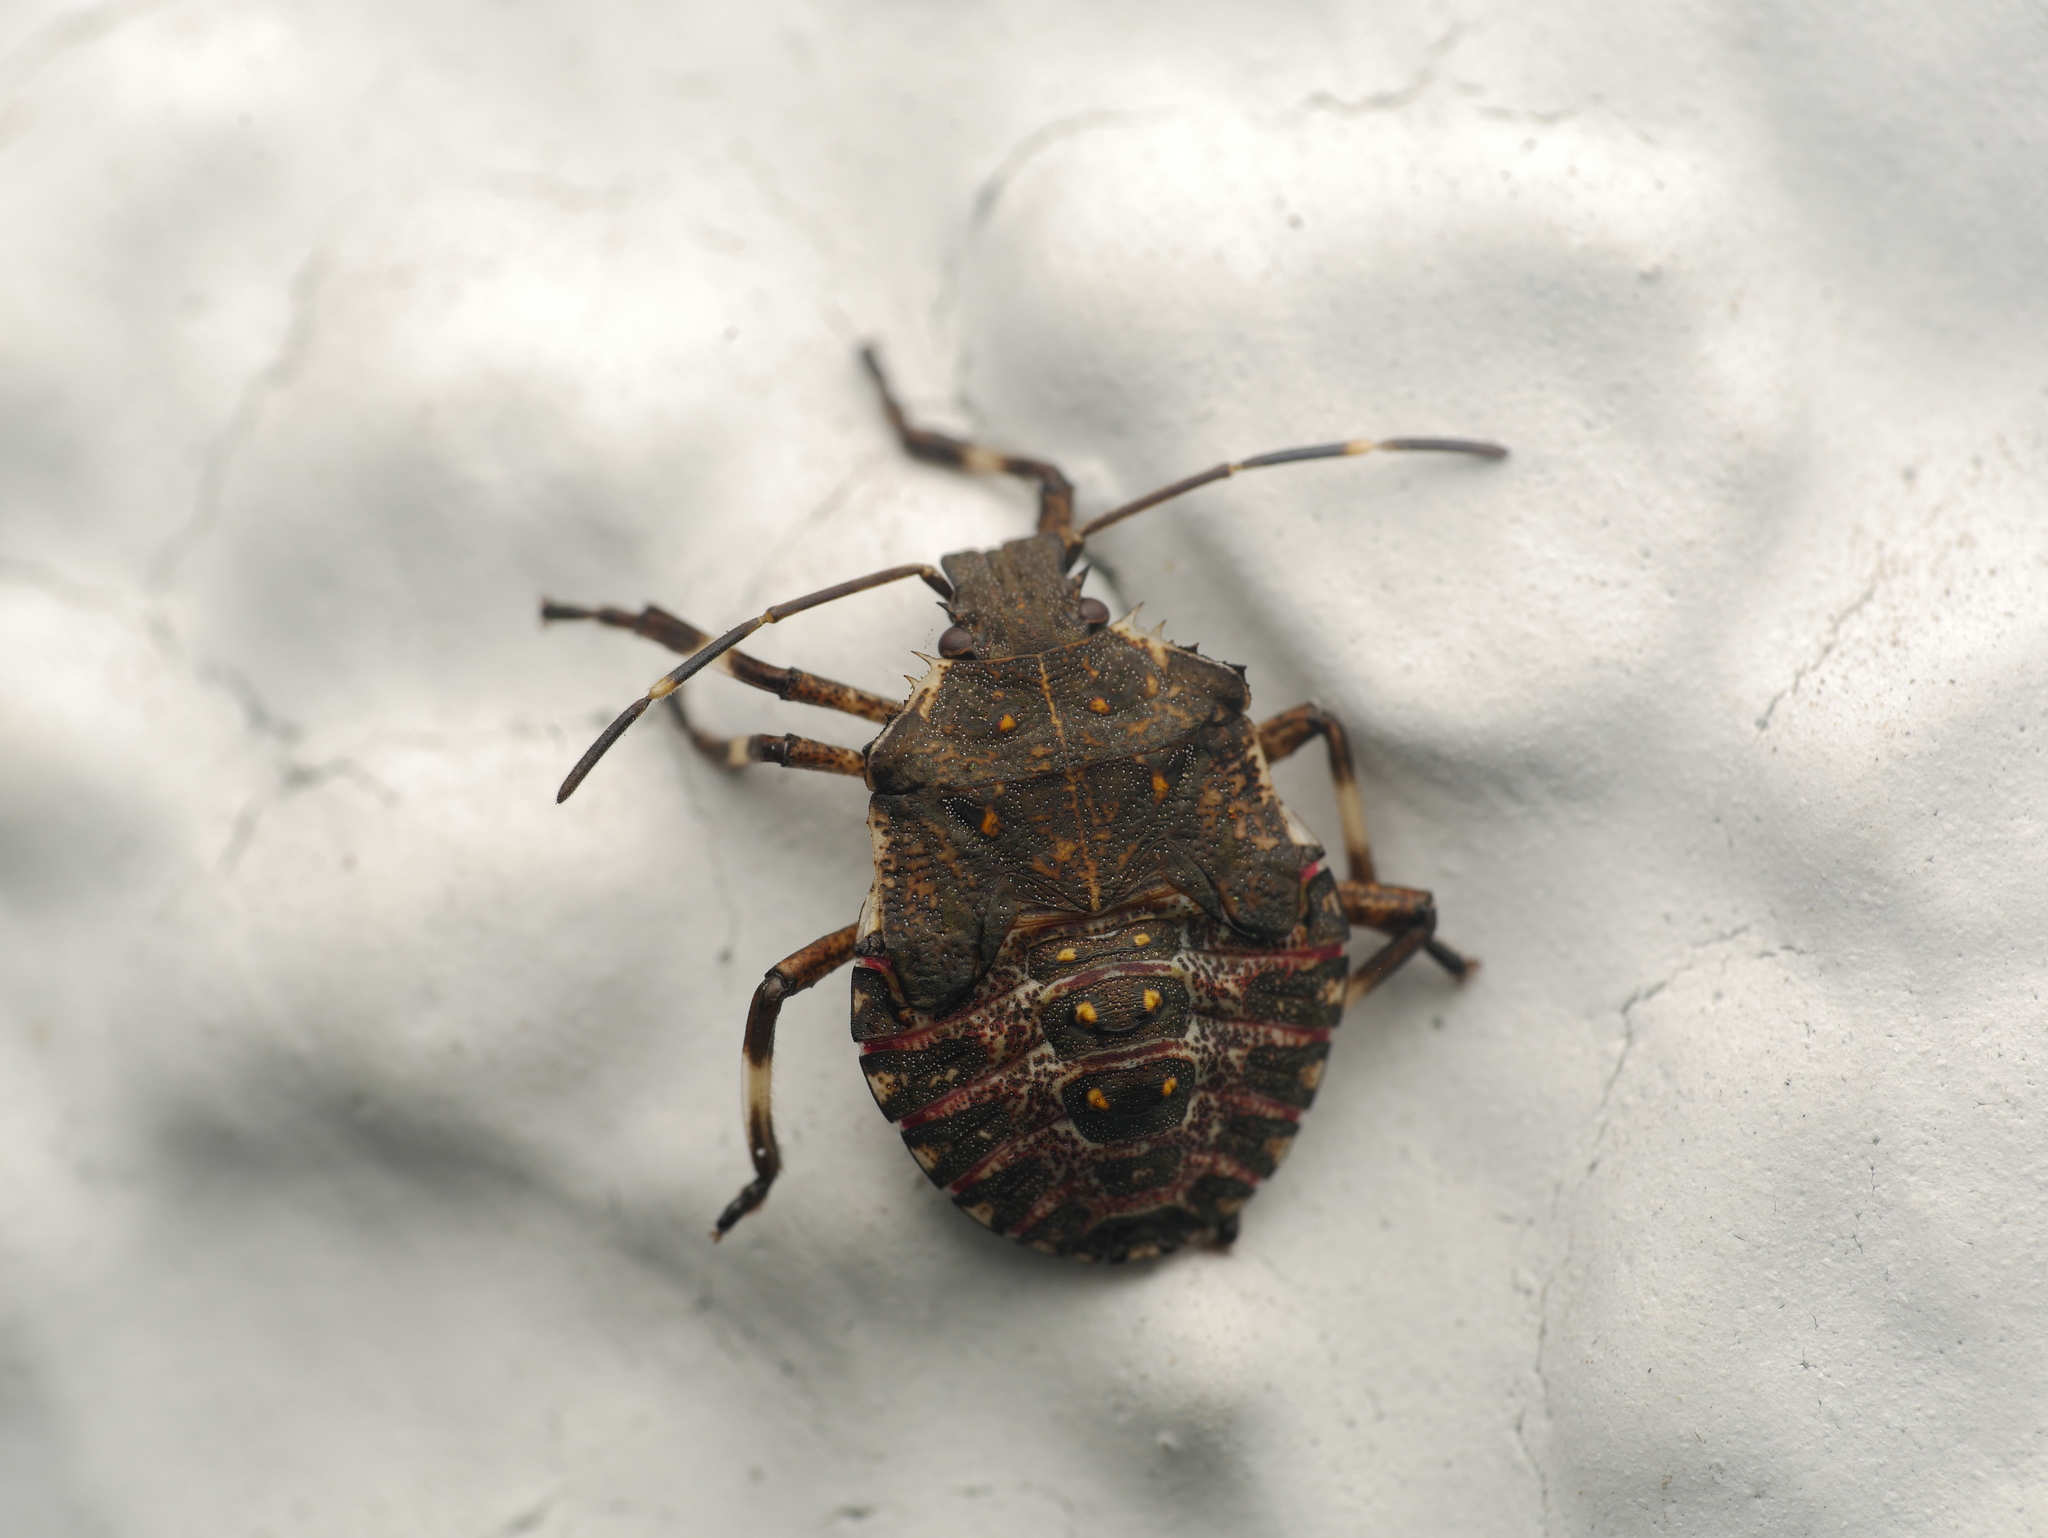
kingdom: Animalia
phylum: Arthropoda
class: Insecta
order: Hemiptera
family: Pentatomidae
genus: Halyomorpha
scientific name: Halyomorpha halys
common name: Brown marmorated stink bug
